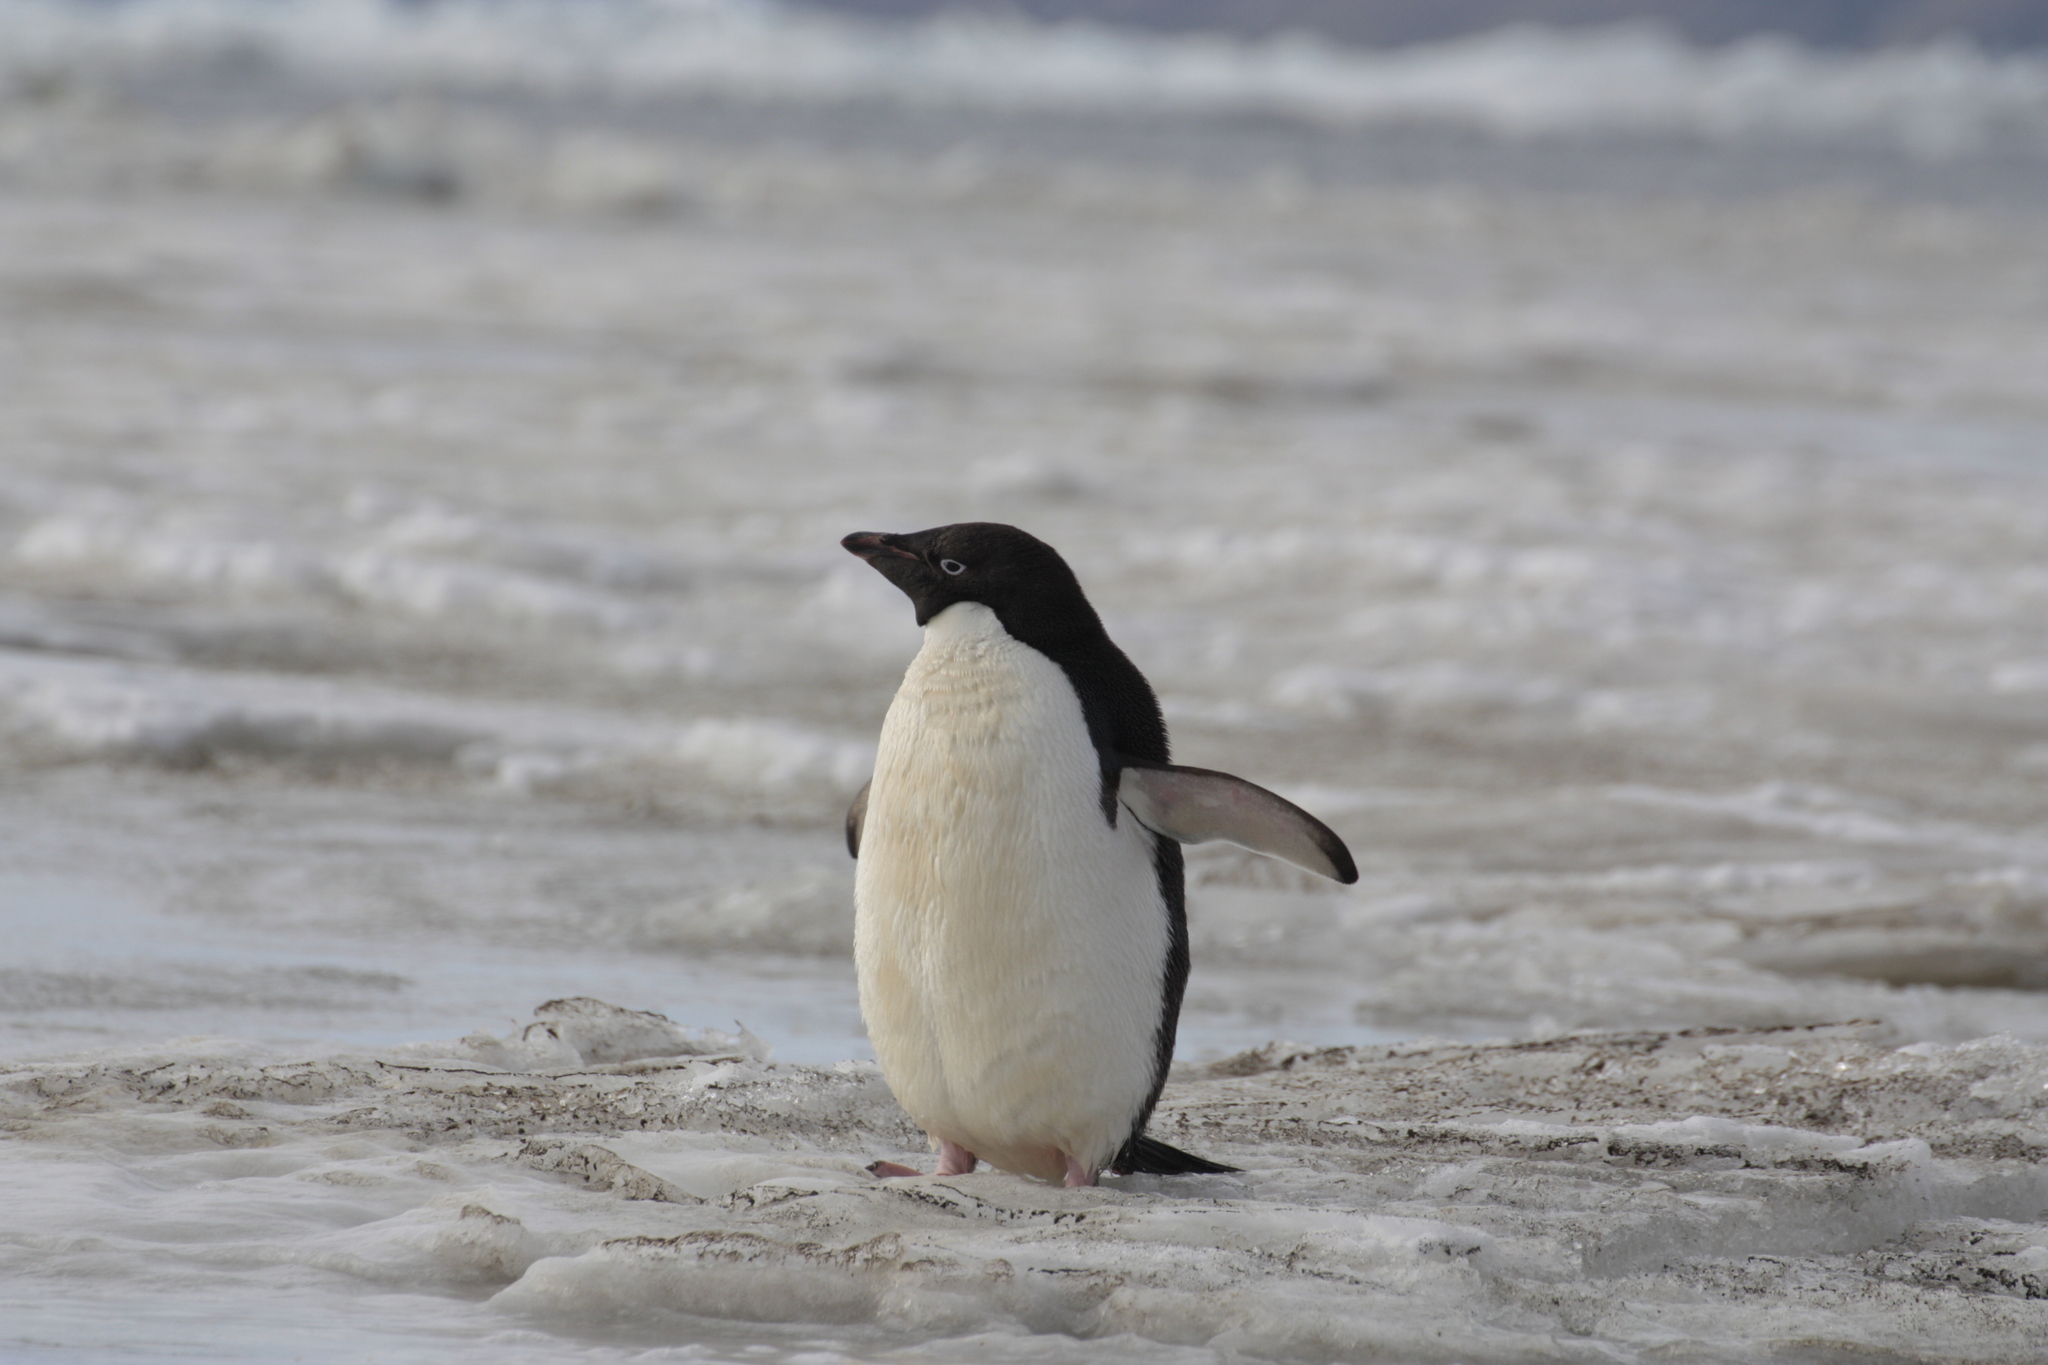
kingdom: Animalia
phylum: Chordata
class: Aves
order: Sphenisciformes
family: Spheniscidae
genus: Pygoscelis
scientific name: Pygoscelis adeliae
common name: Adelie penguin
